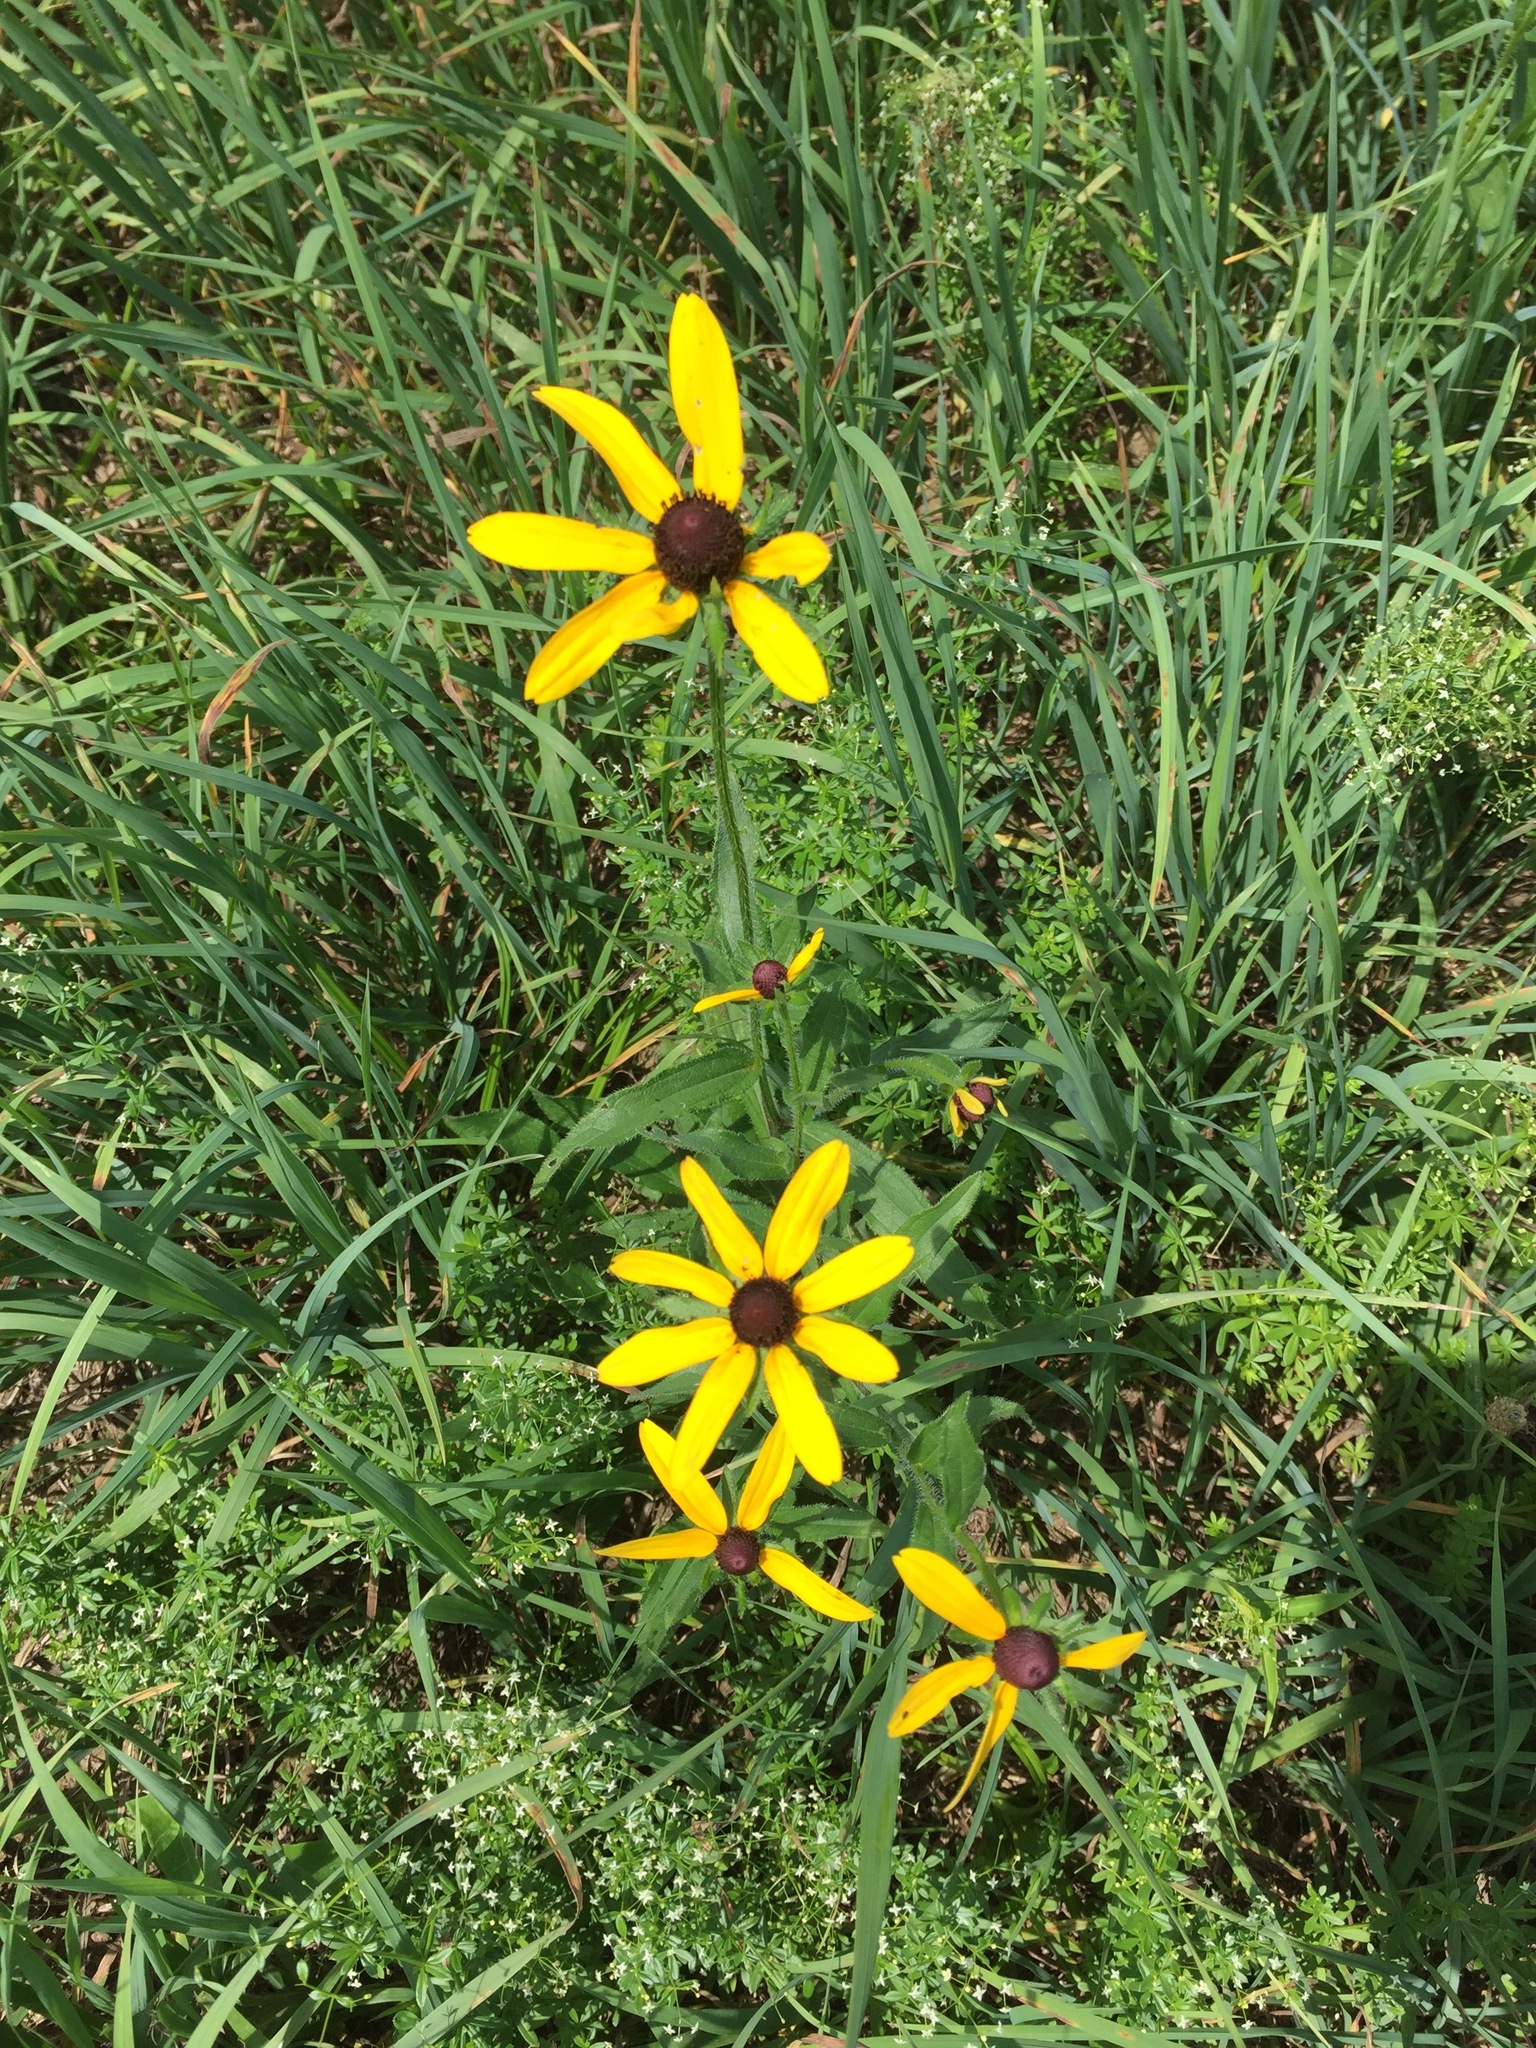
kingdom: Plantae
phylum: Tracheophyta
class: Magnoliopsida
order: Asterales
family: Asteraceae
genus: Rudbeckia
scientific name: Rudbeckia hirta
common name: Black-eyed-susan
